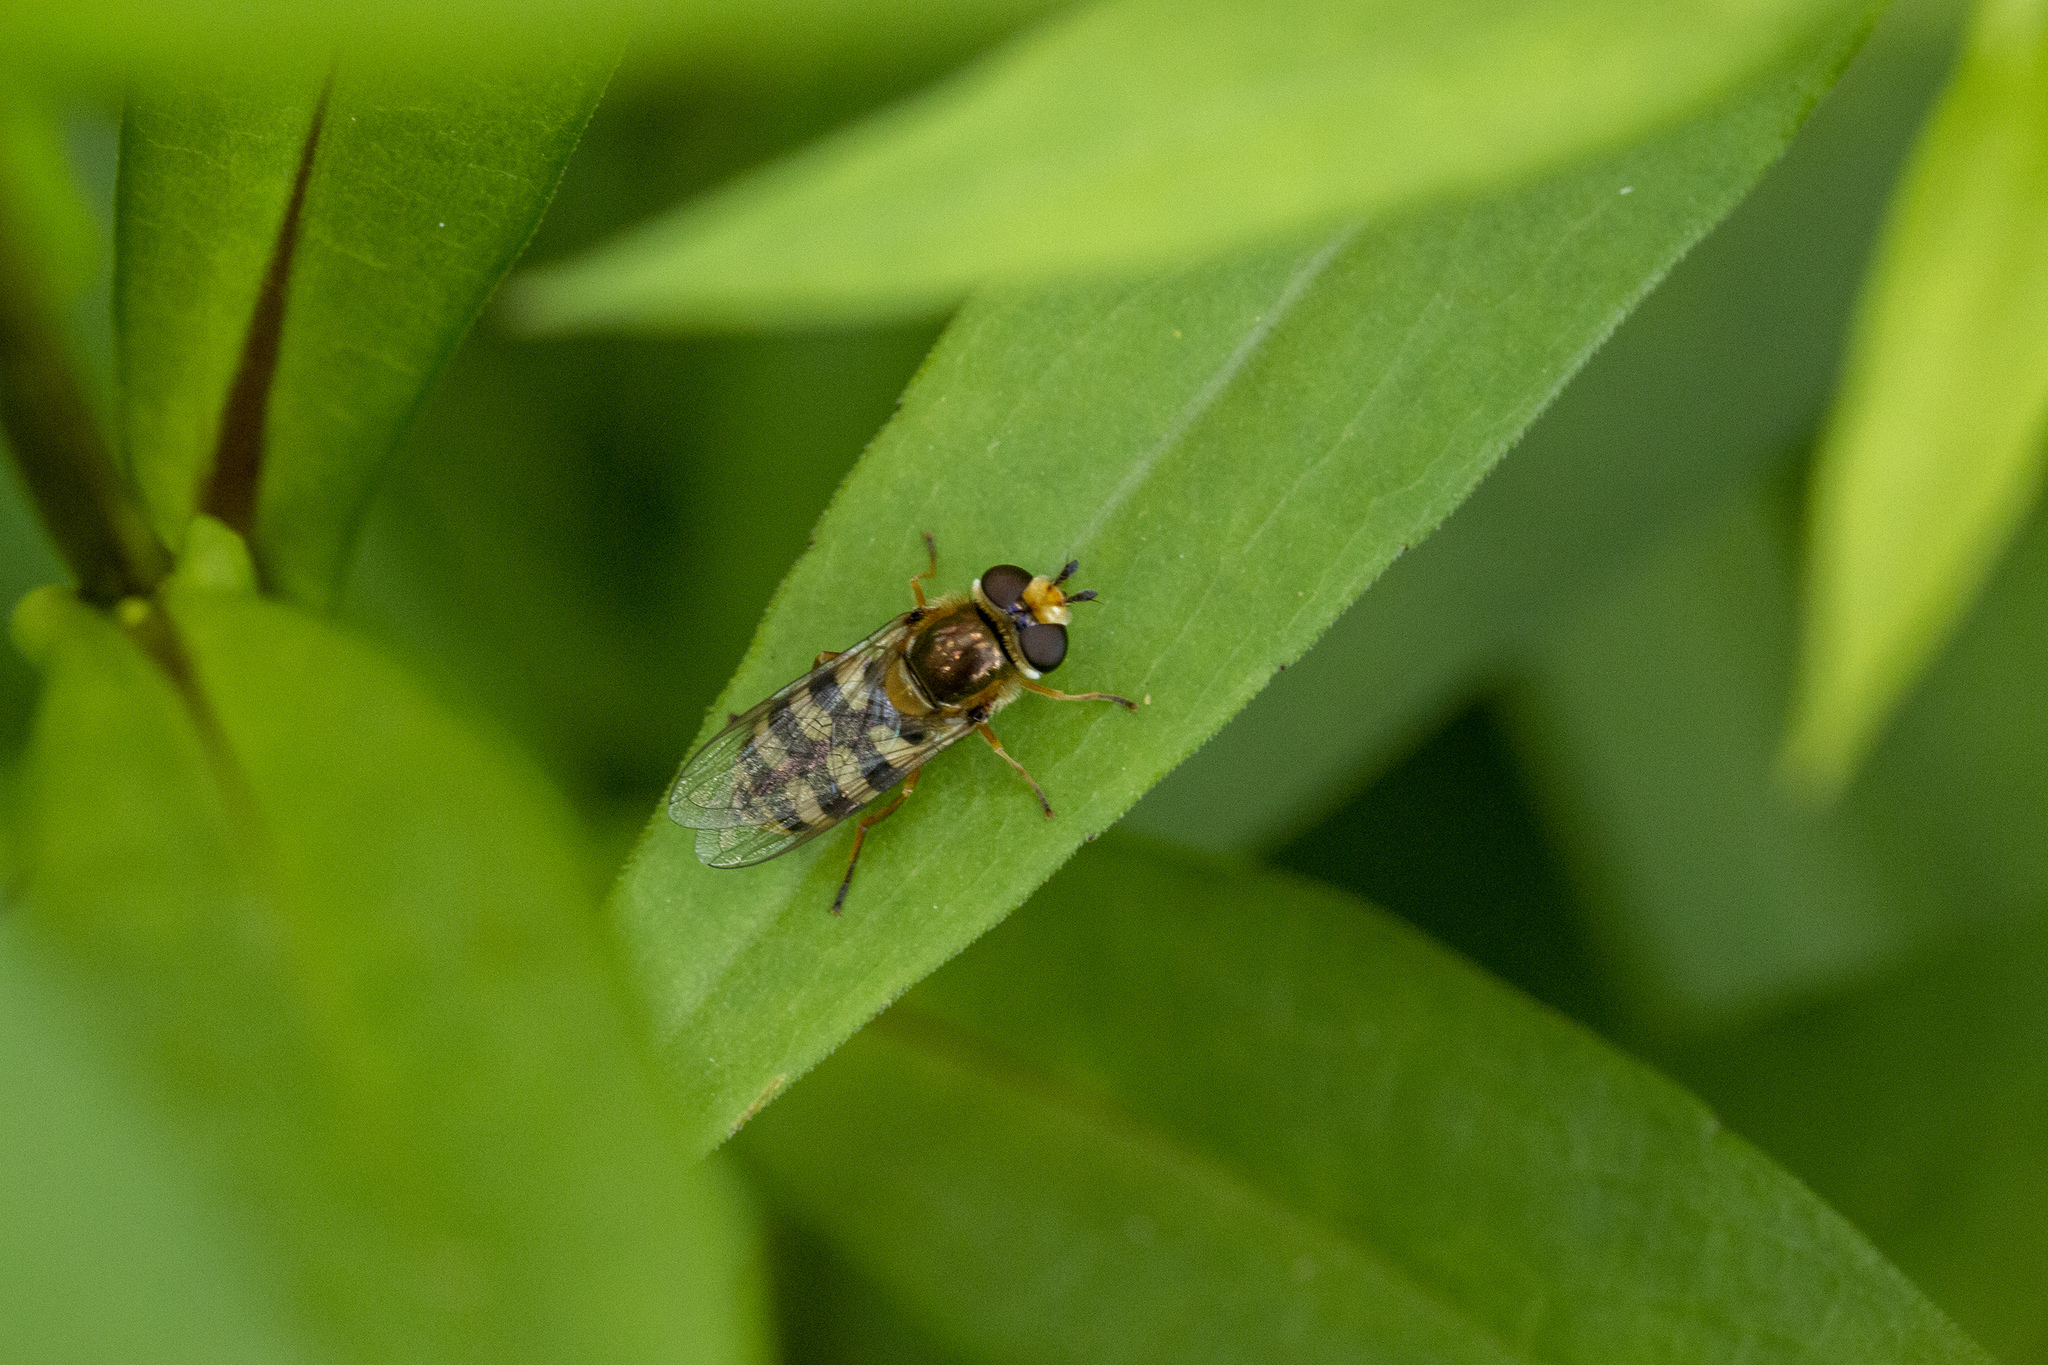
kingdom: Animalia
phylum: Arthropoda
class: Insecta
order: Diptera
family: Syrphidae
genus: Eupeodes
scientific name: Eupeodes corollae
